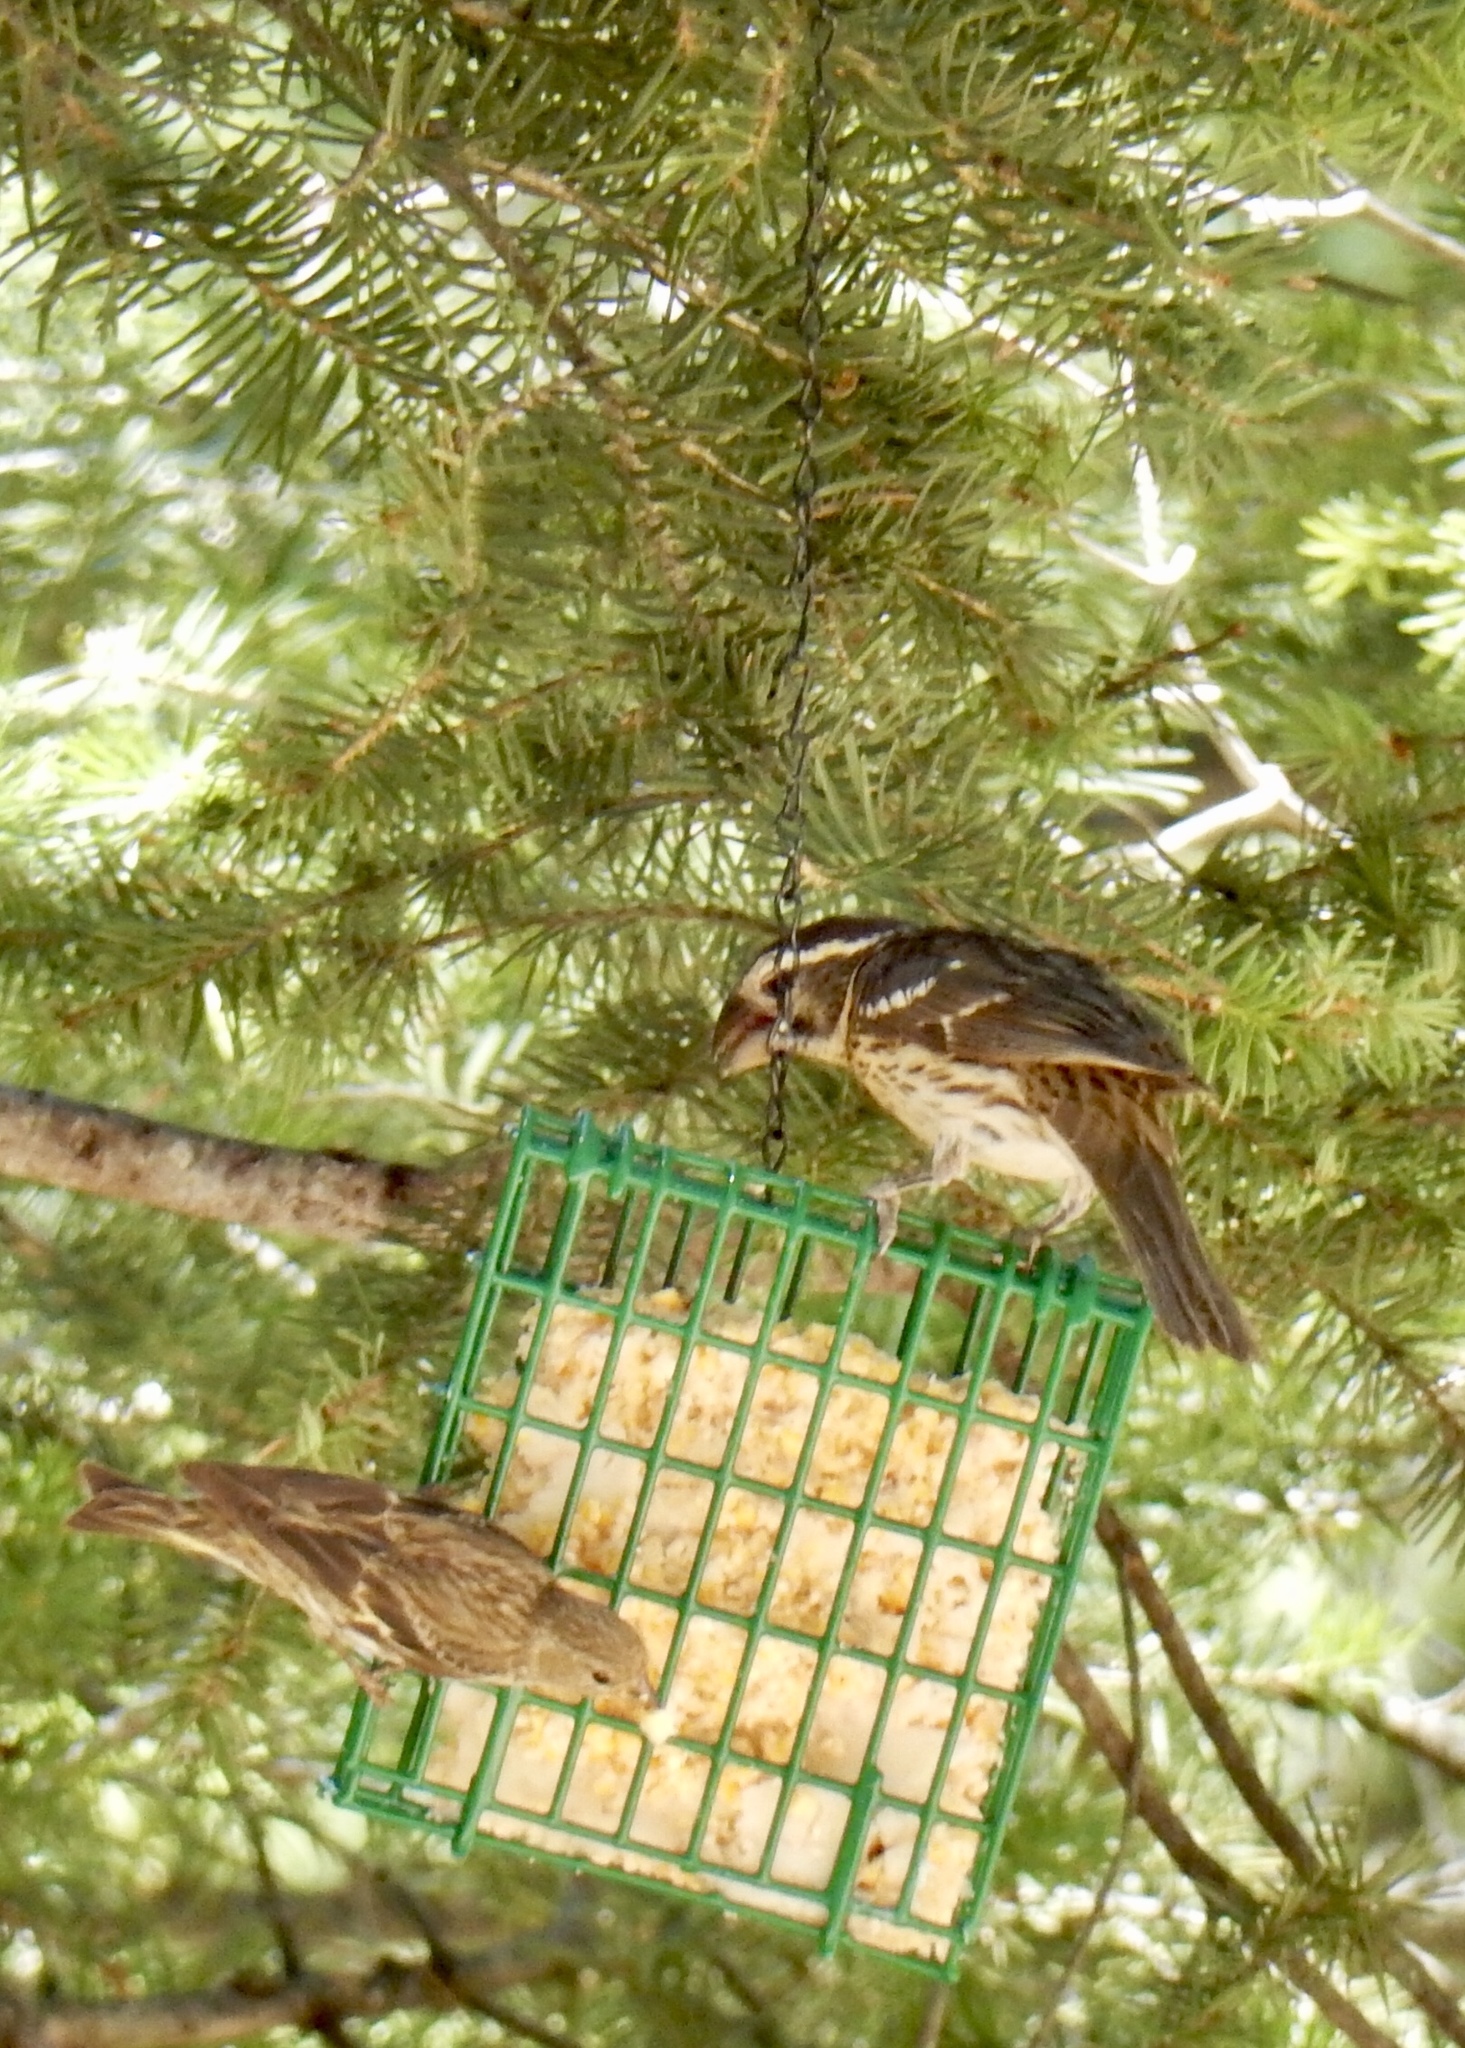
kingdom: Animalia
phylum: Chordata
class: Aves
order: Passeriformes
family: Cardinalidae
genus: Pheucticus
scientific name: Pheucticus melanocephalus
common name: Black-headed grosbeak
